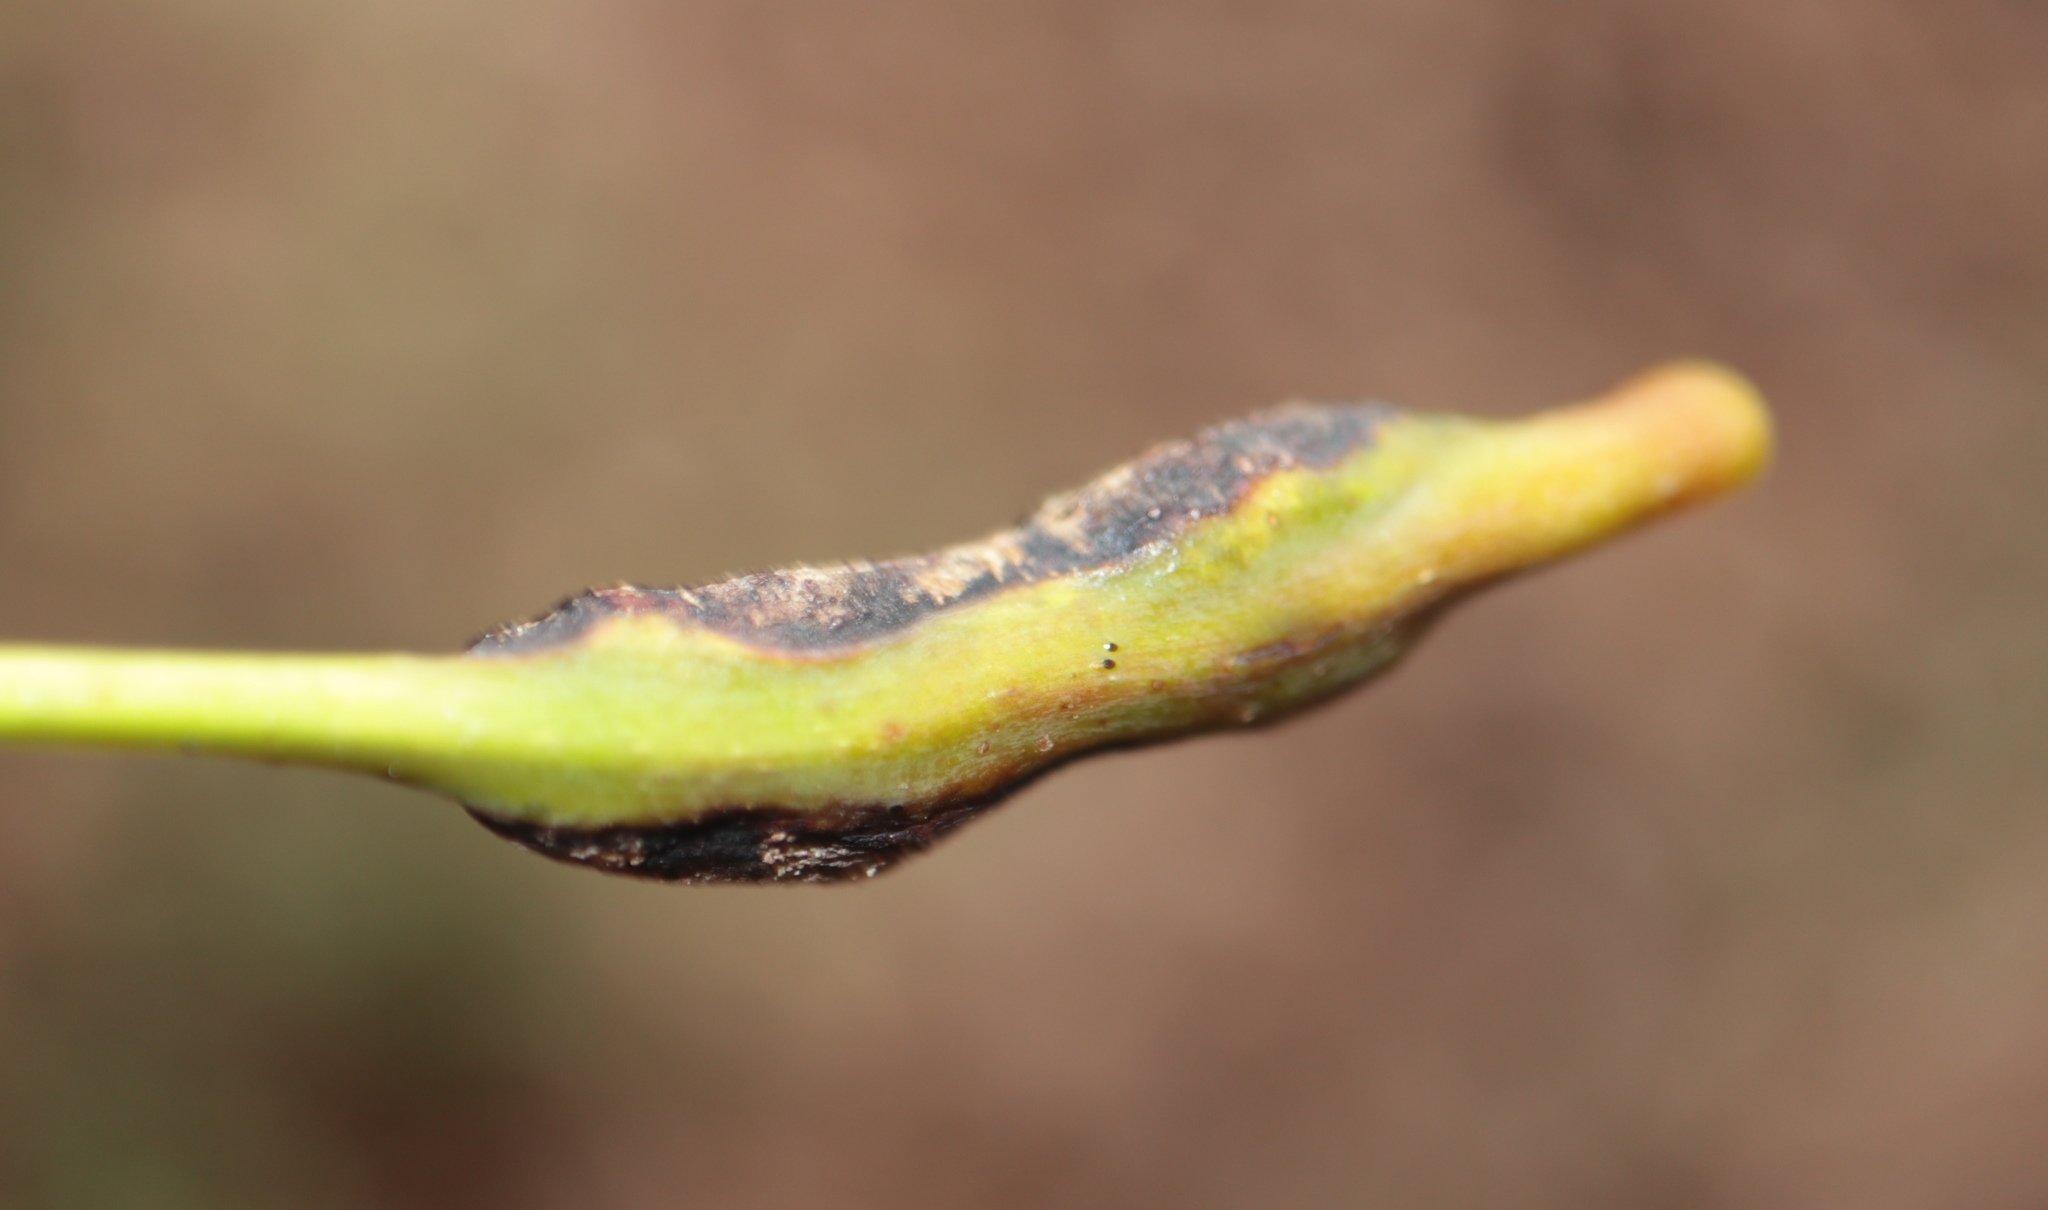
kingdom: Animalia
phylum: Arthropoda
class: Insecta
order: Hymenoptera
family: Cynipidae
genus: Melikaiella
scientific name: Melikaiella tumifica
